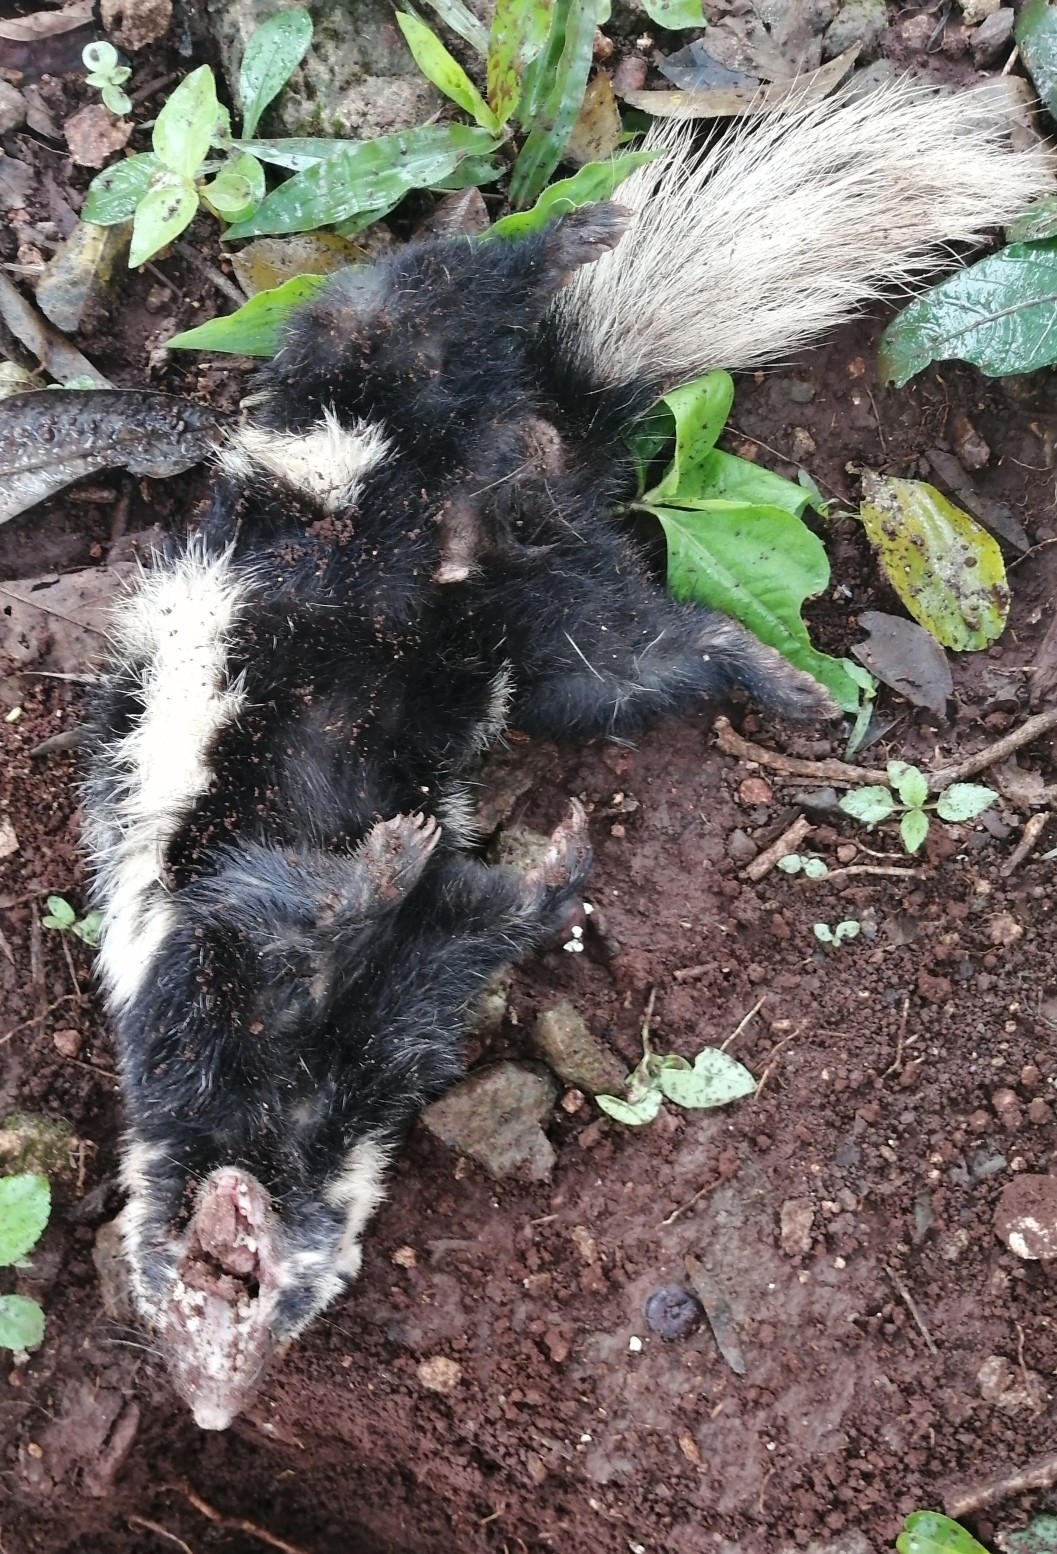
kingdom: Animalia
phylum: Chordata
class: Mammalia
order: Carnivora
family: Mephitidae
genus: Spilogale
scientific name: Spilogale angustifrons
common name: Southern spotted skunk
